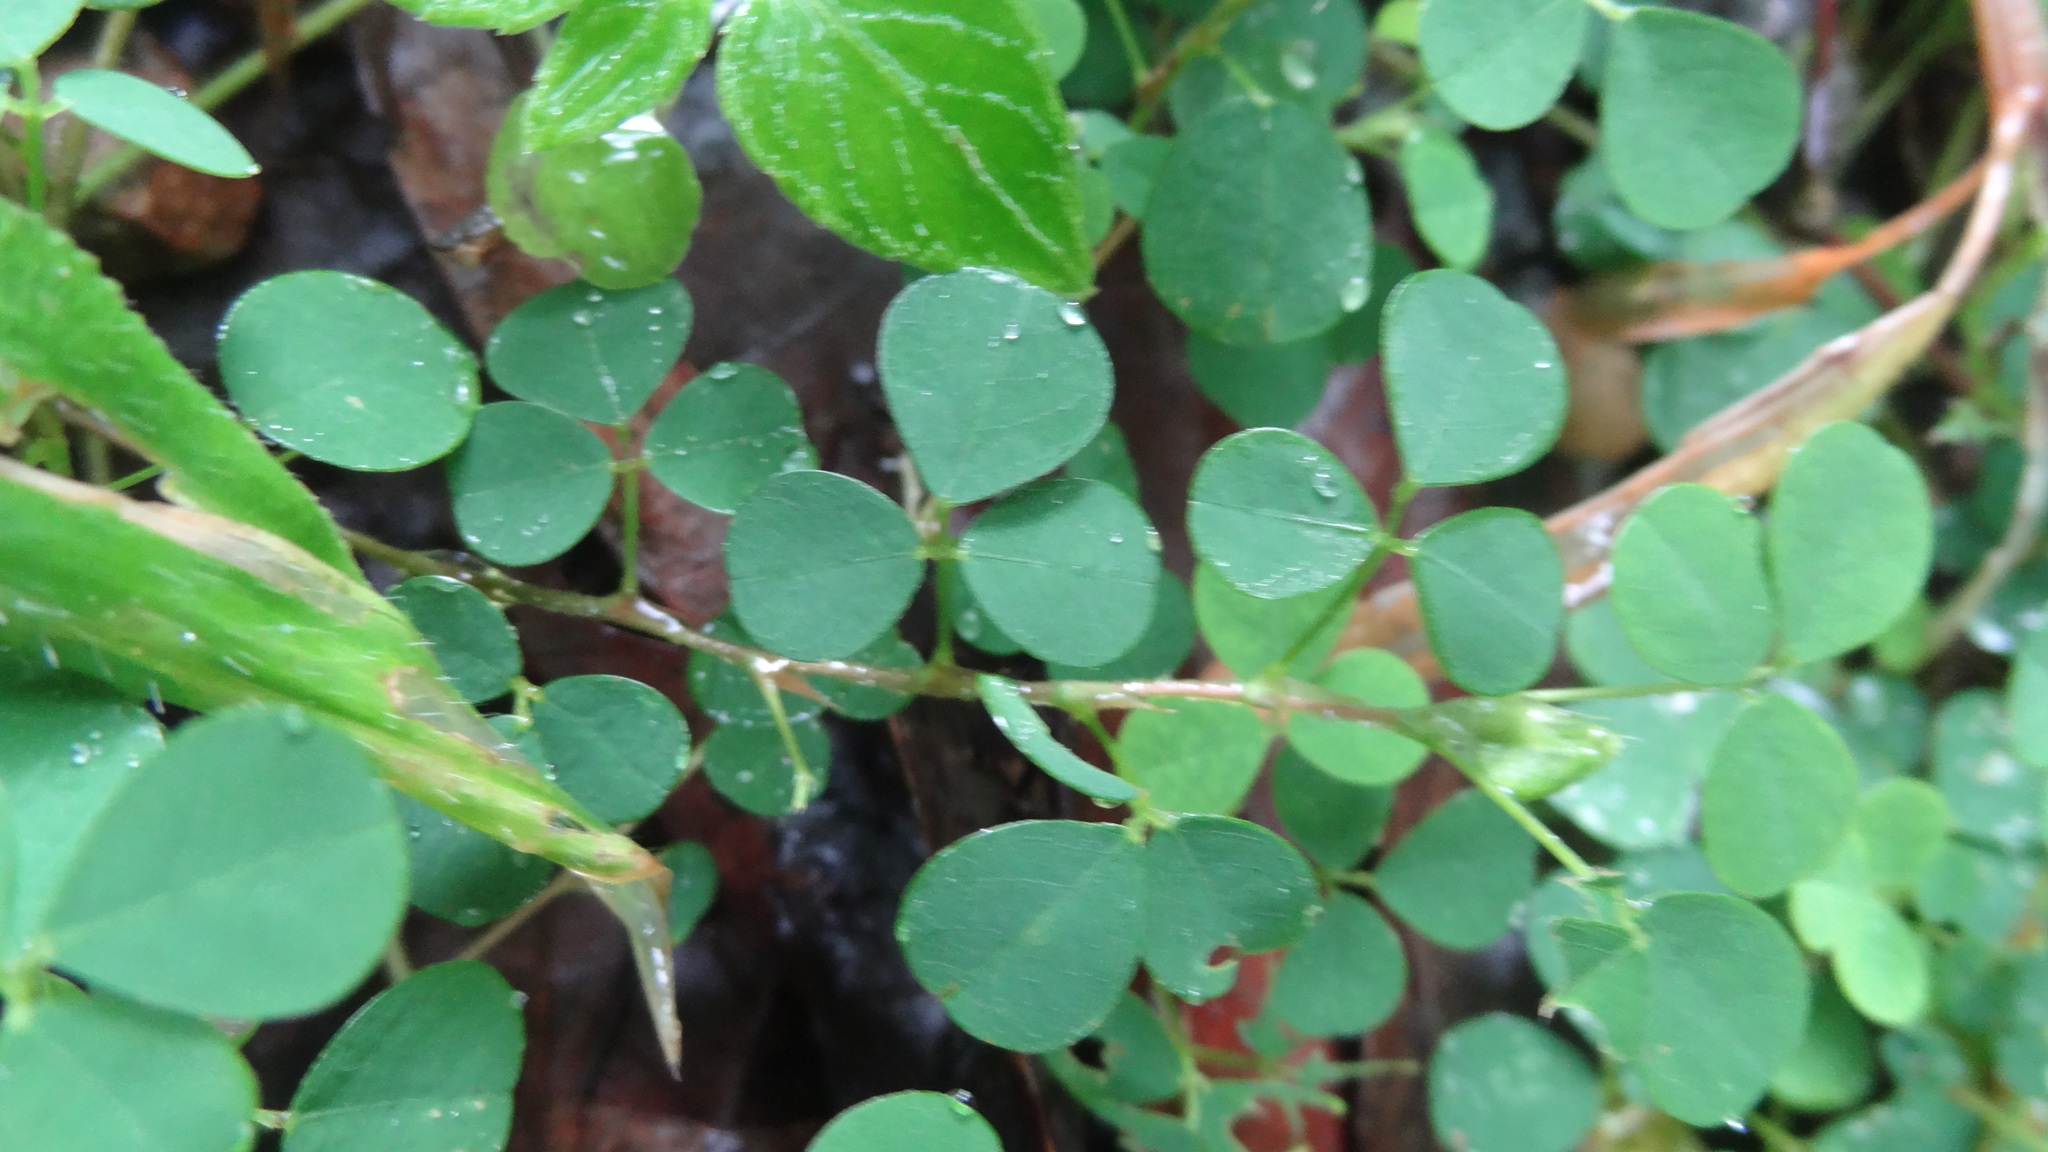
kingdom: Plantae
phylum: Tracheophyta
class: Magnoliopsida
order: Fabales
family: Fabaceae
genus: Grona
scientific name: Grona triflora
